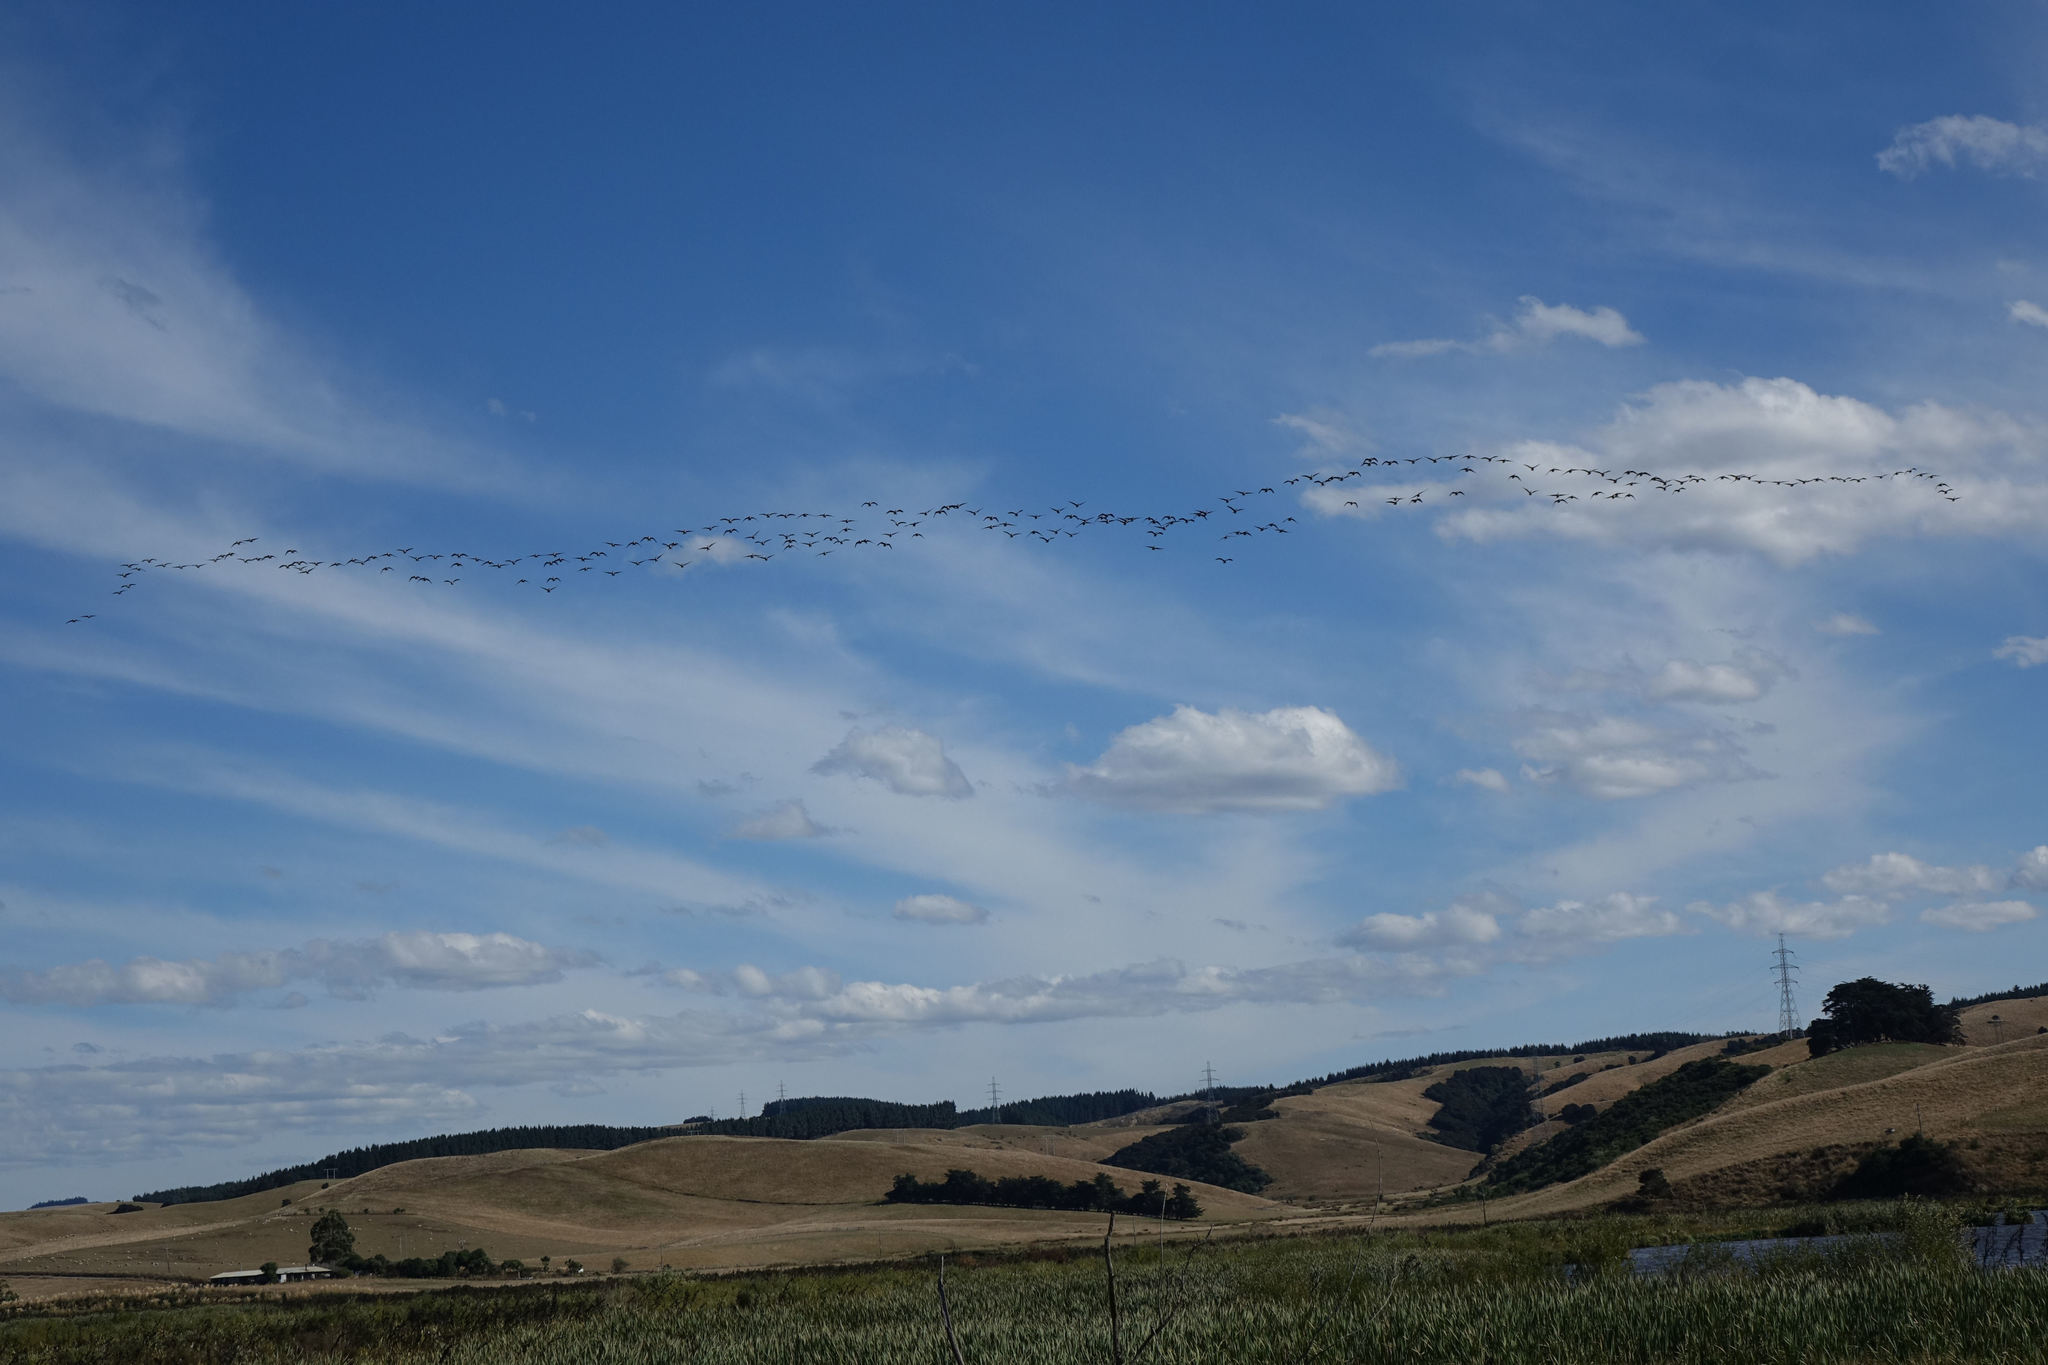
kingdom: Animalia
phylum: Chordata
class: Aves
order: Anseriformes
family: Anatidae
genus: Branta
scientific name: Branta canadensis
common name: Canada goose
